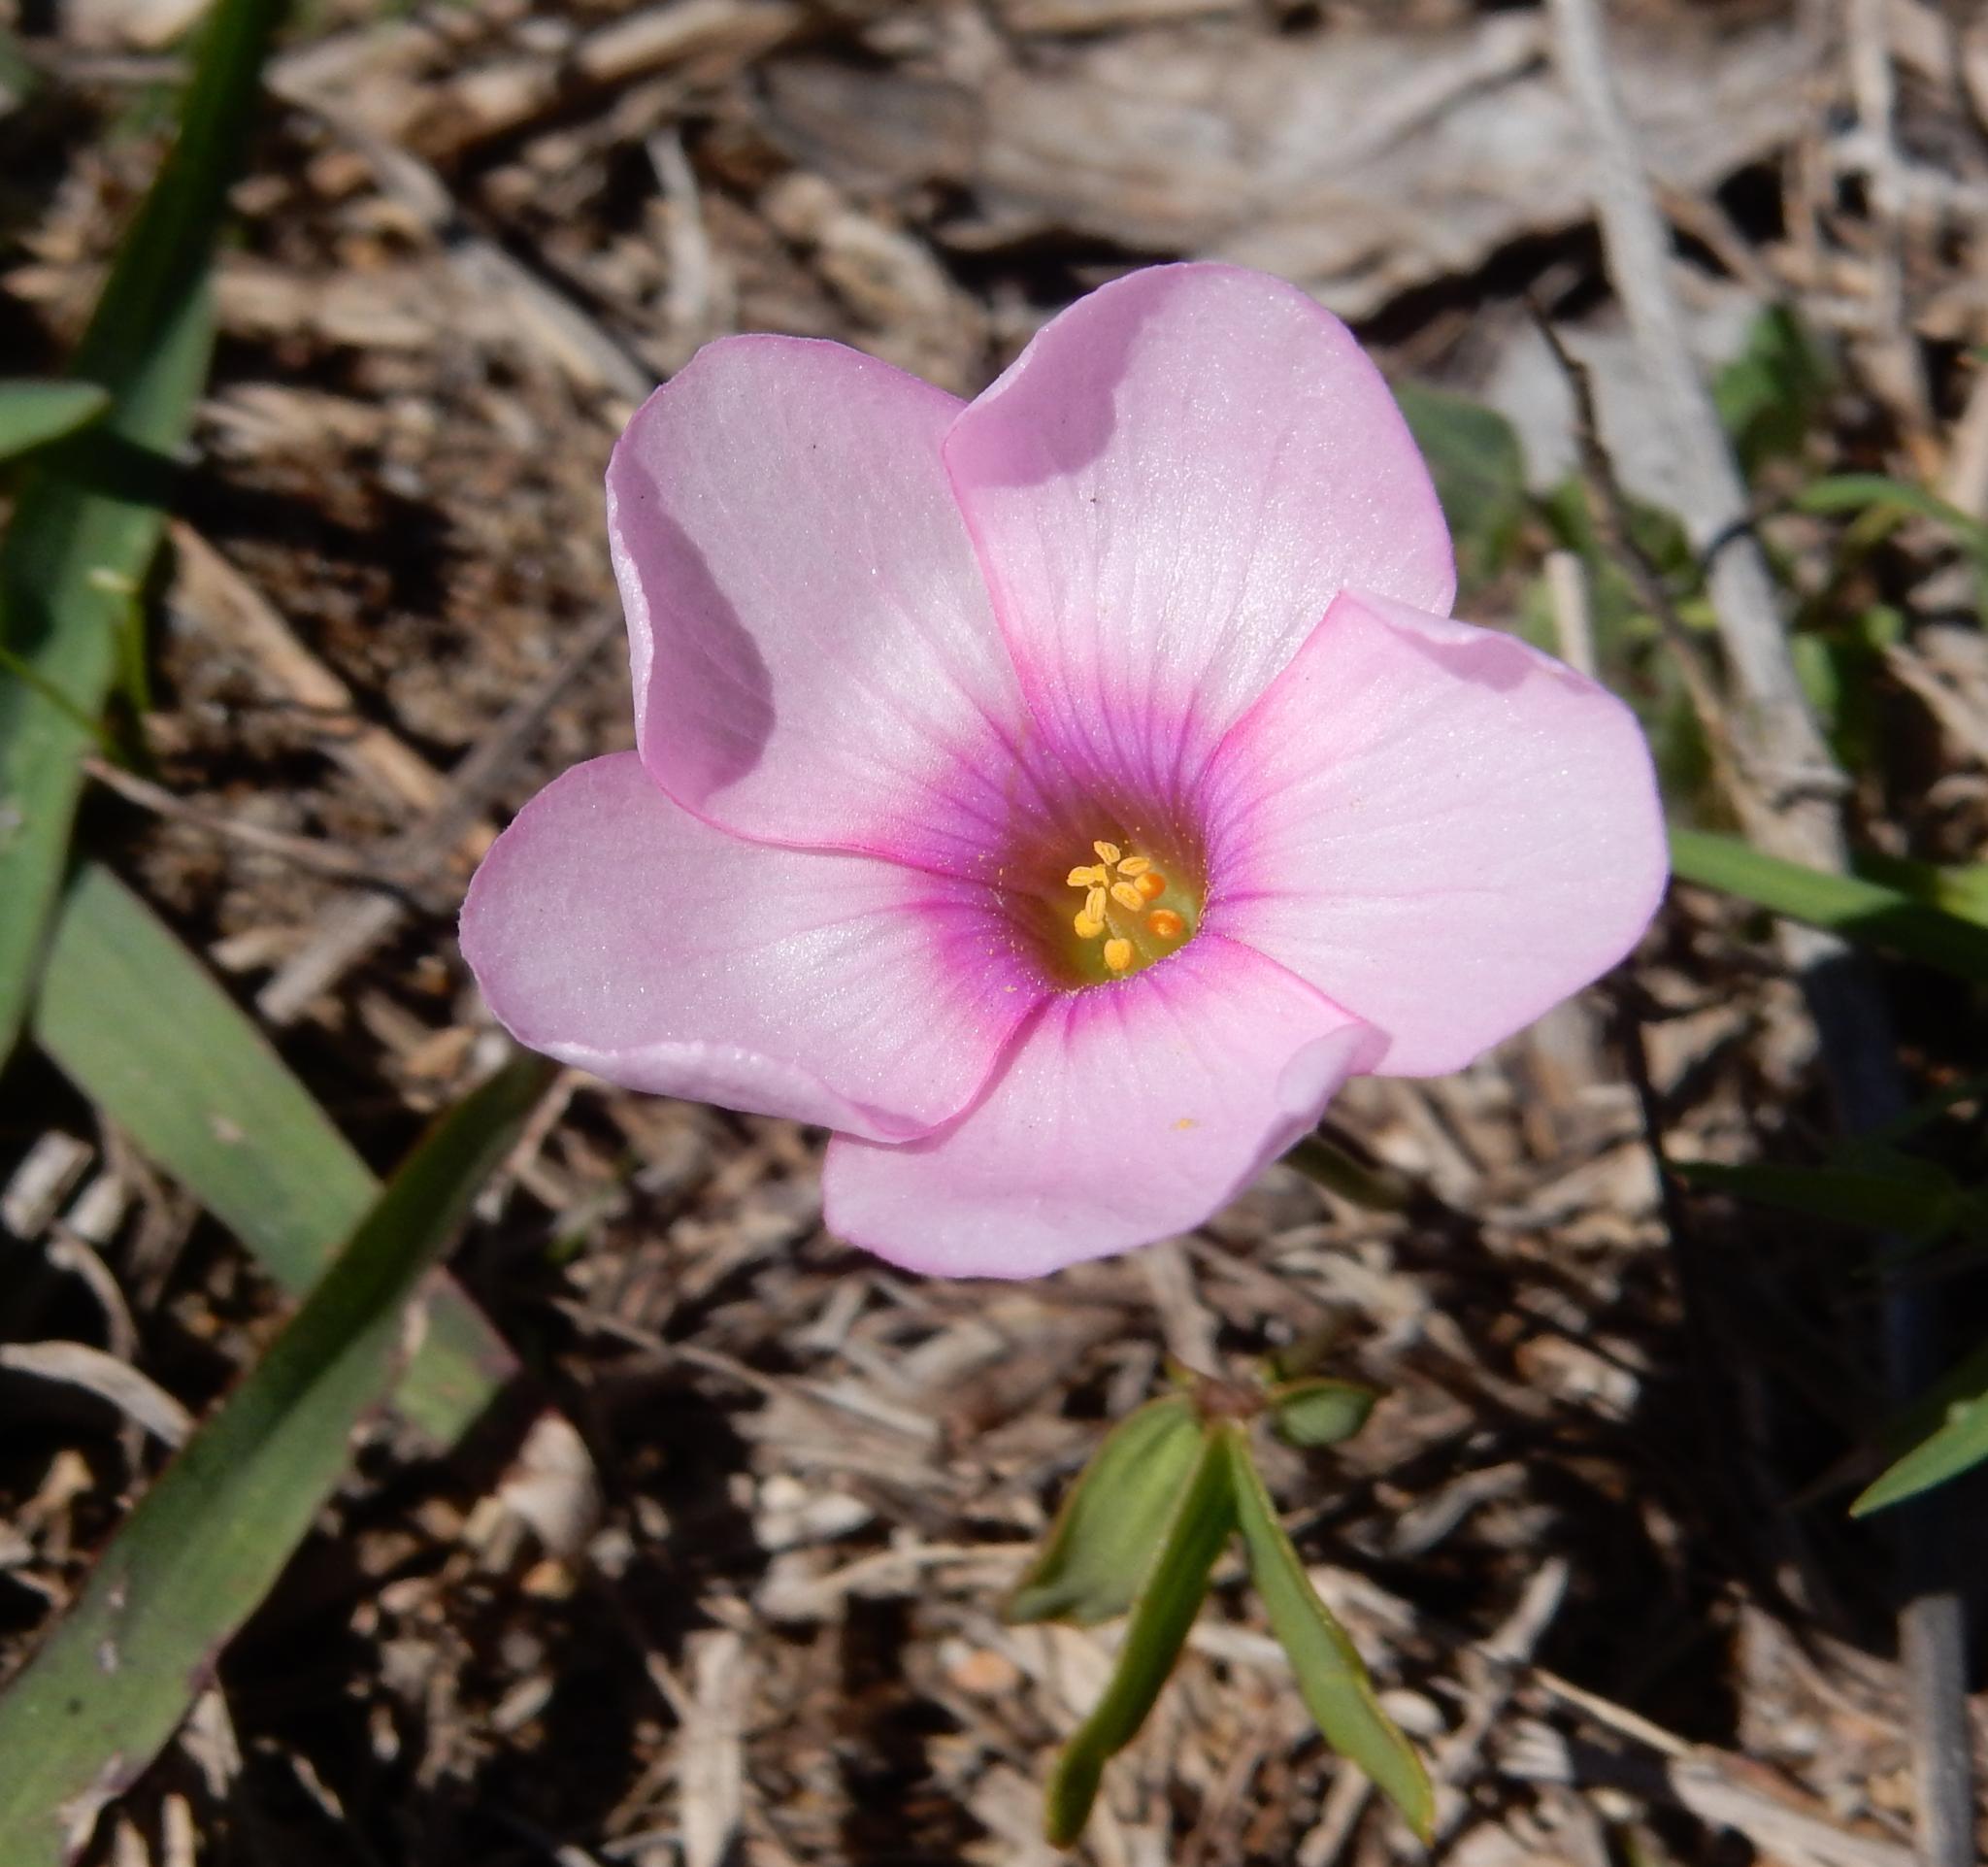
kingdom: Plantae
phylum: Tracheophyta
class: Magnoliopsida
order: Oxalidales
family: Oxalidaceae
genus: Oxalis
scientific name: Oxalis smithiana
